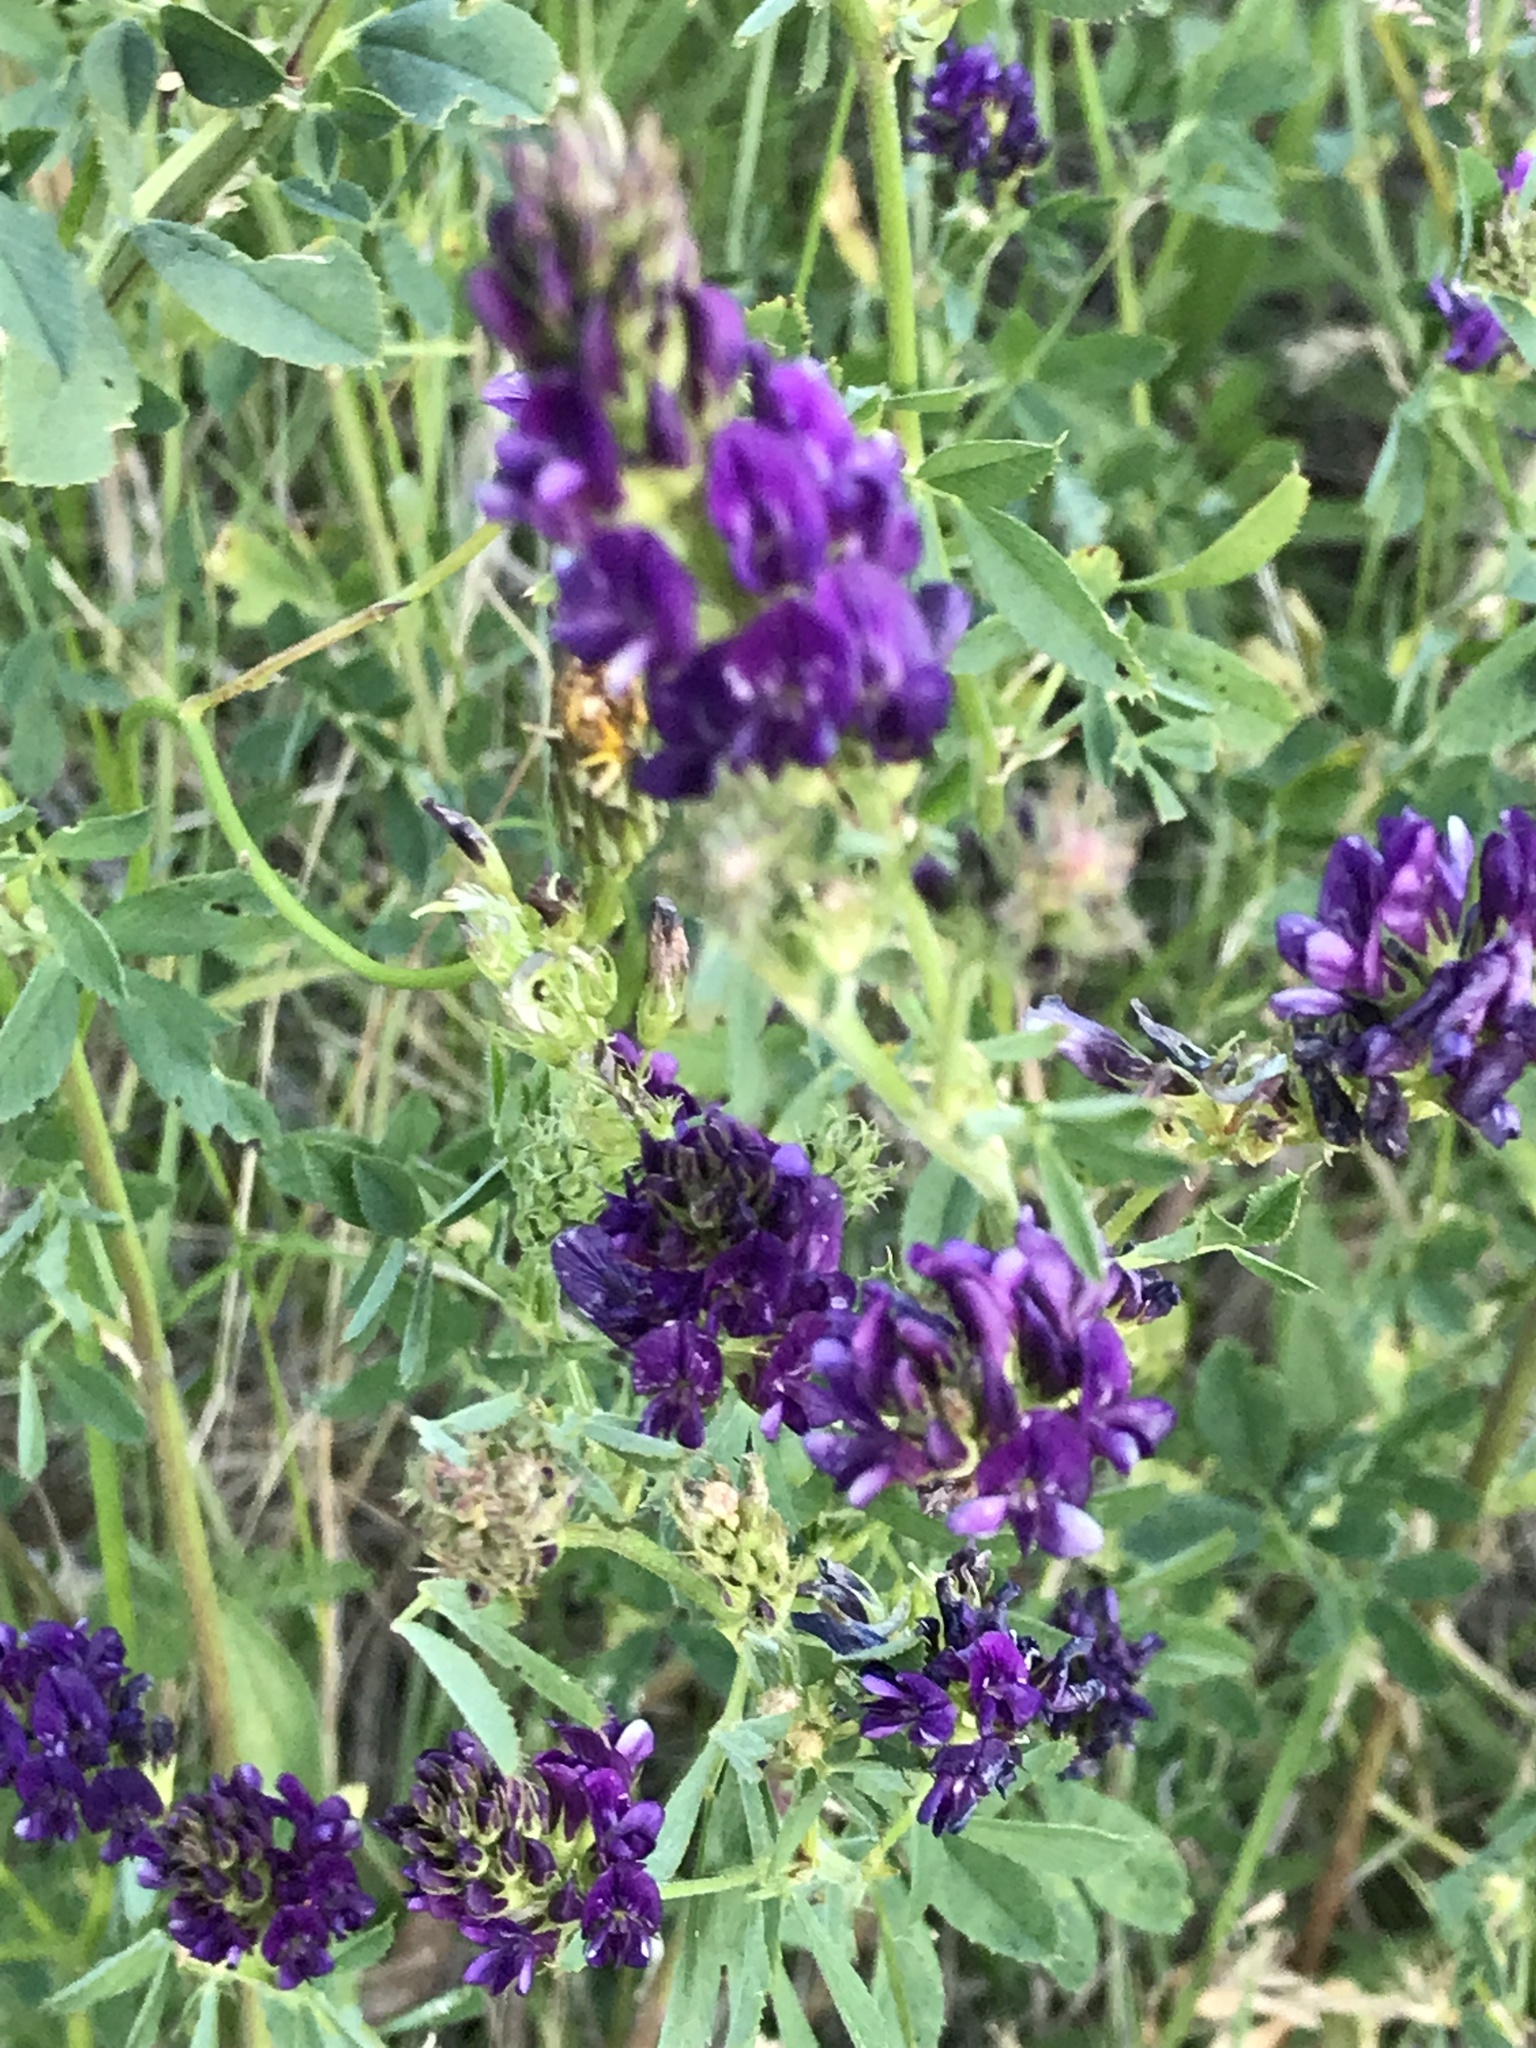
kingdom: Plantae
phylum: Tracheophyta
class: Magnoliopsida
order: Fabales
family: Fabaceae
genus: Medicago
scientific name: Medicago sativa
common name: Alfalfa
